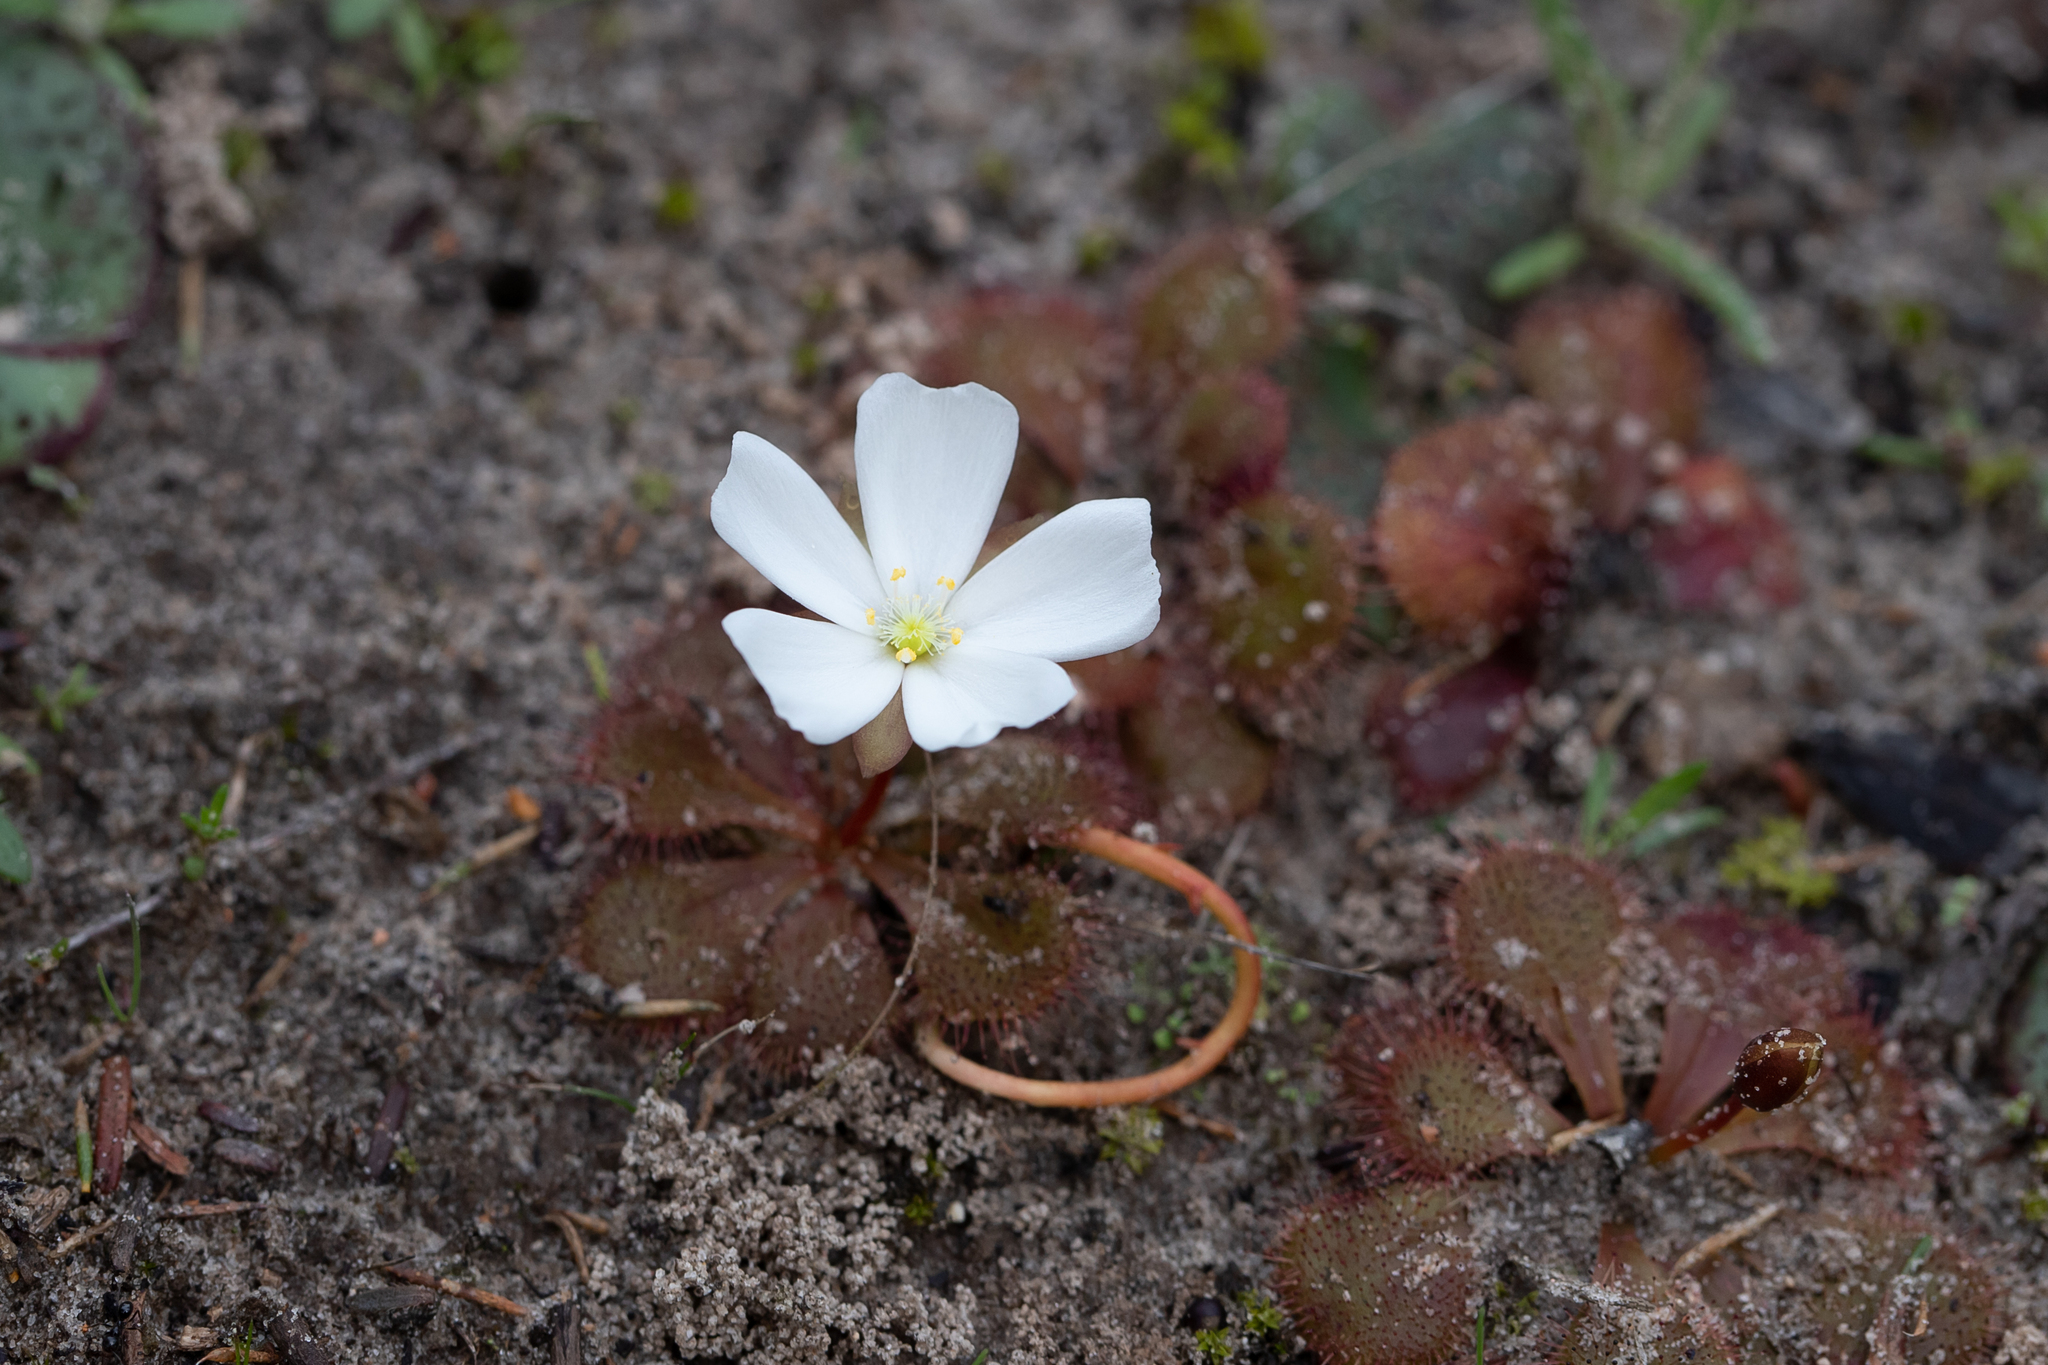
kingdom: Plantae
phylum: Tracheophyta
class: Magnoliopsida
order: Caryophyllales
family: Droseraceae
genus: Drosera
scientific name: Drosera aberrans
